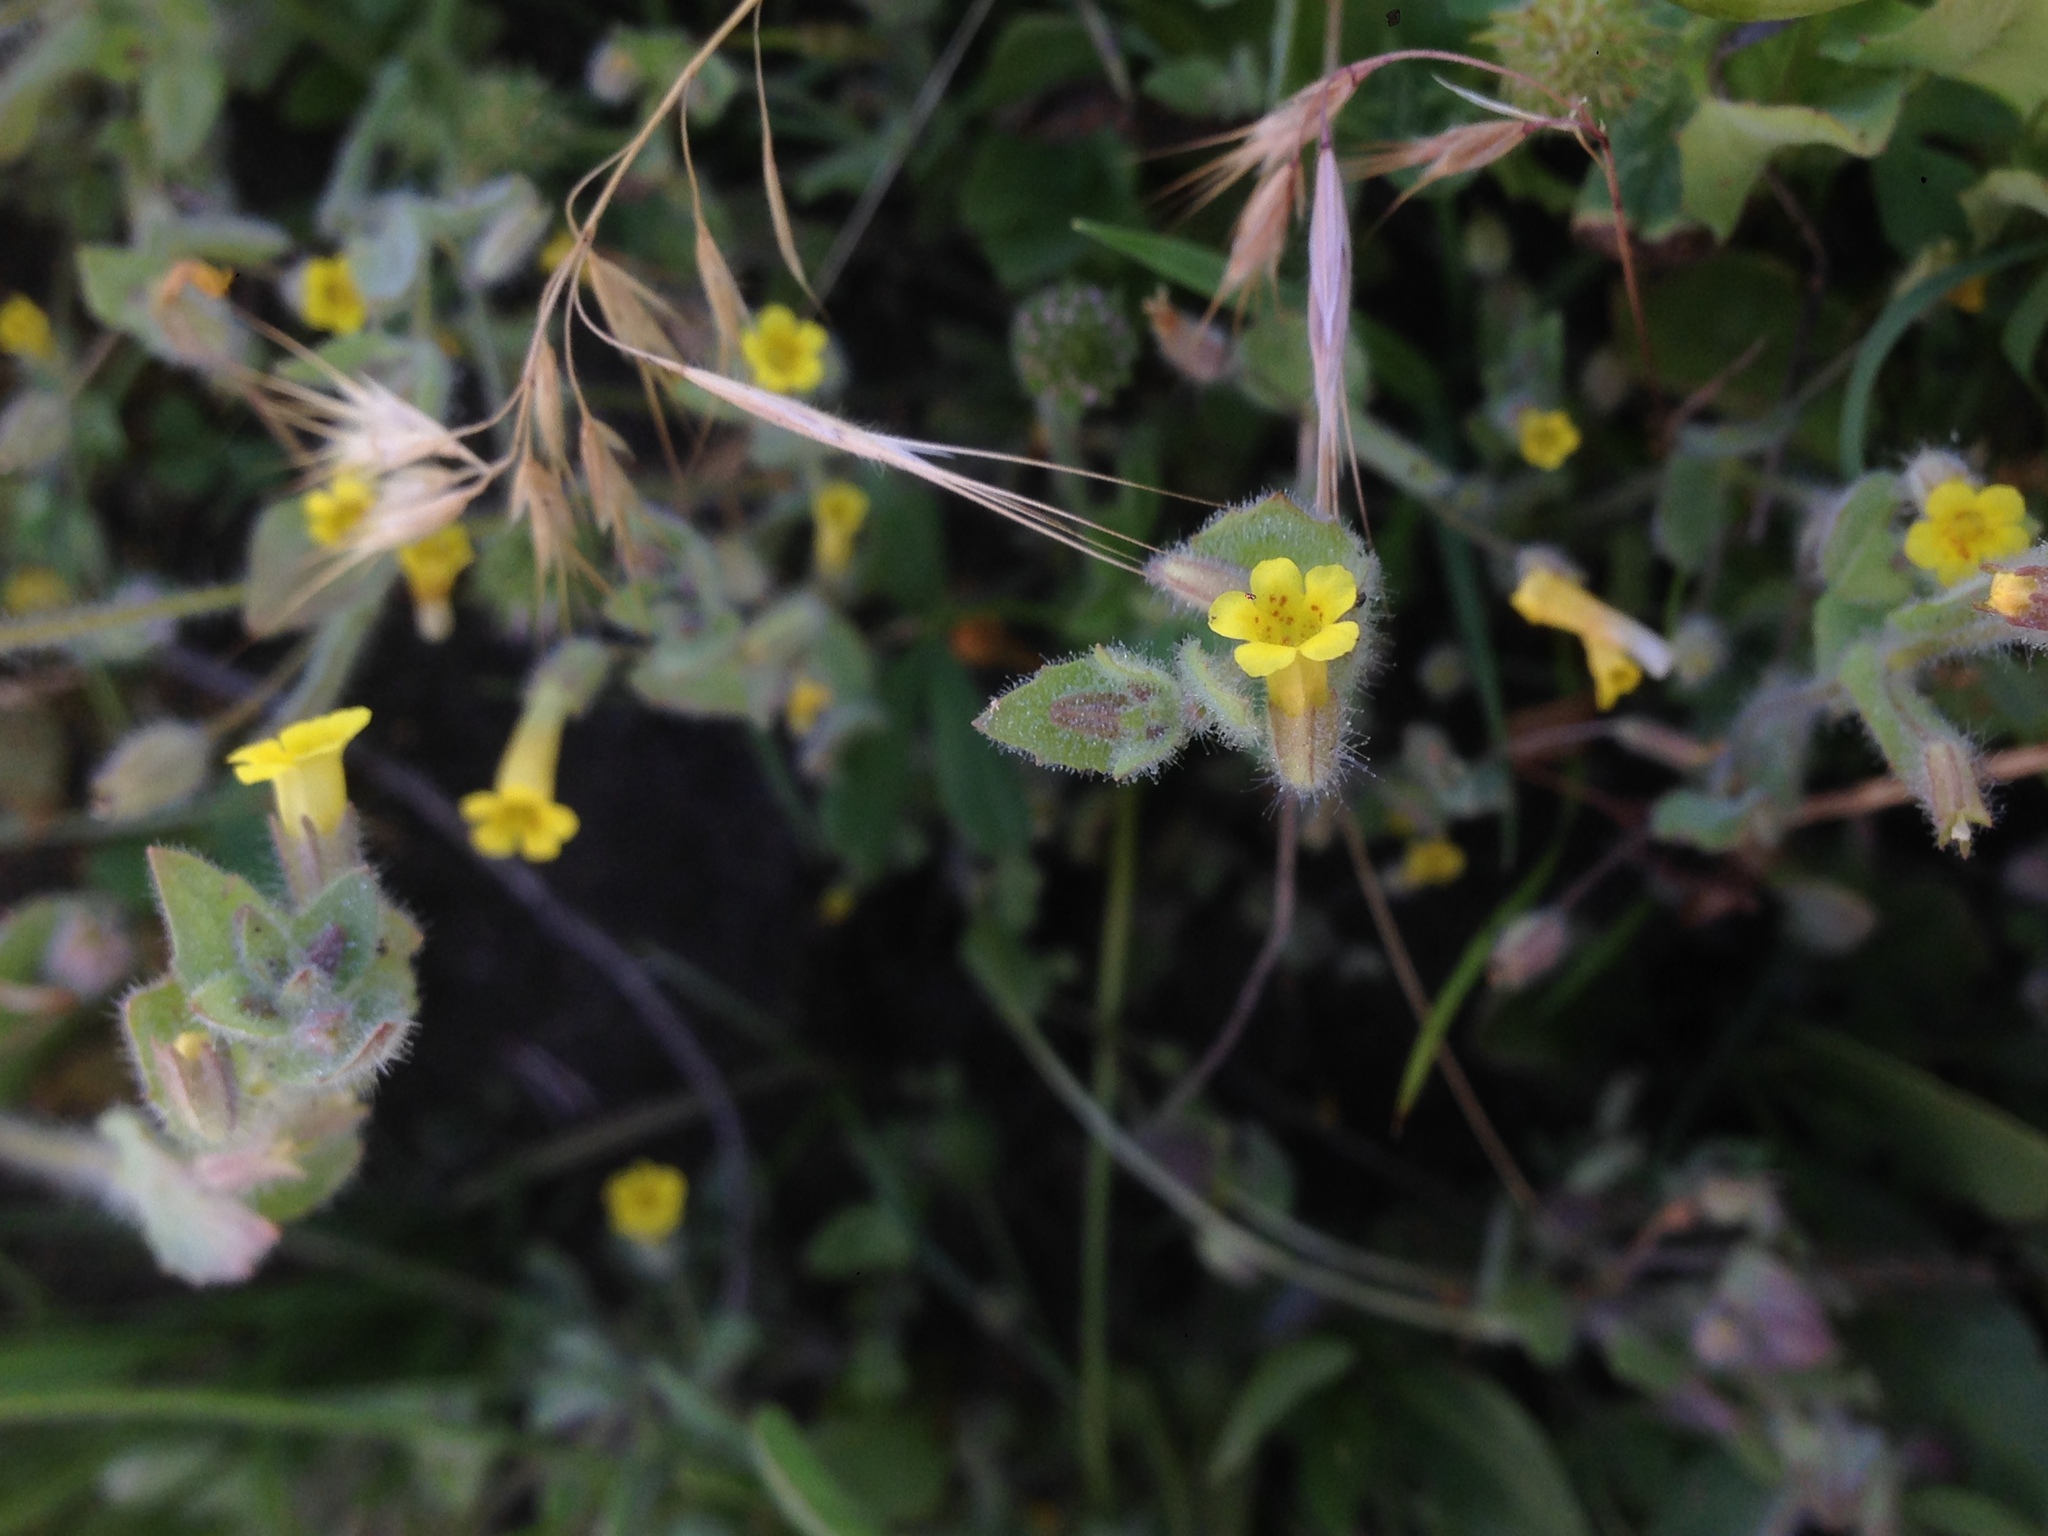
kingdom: Plantae
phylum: Tracheophyta
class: Magnoliopsida
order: Lamiales
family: Phrymaceae
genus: Erythranthe
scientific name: Erythranthe floribunda
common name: Floriferous monkeyflower
